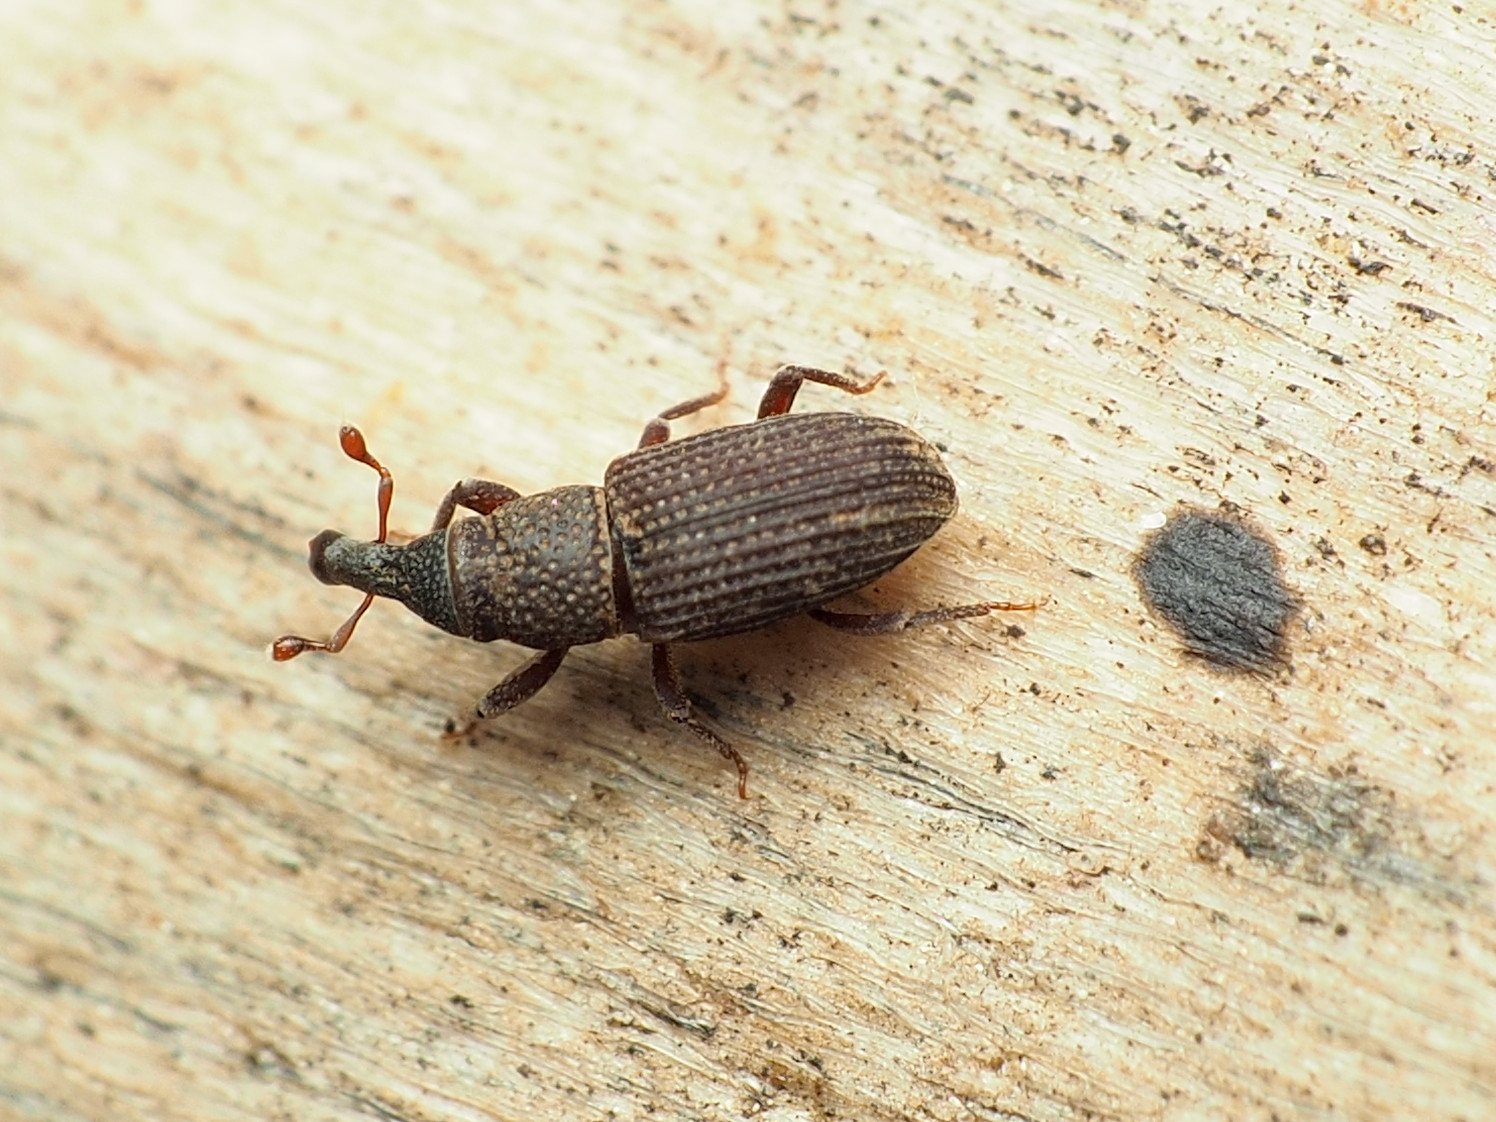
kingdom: Animalia
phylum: Arthropoda
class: Insecta
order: Coleoptera
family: Dryophthoridae
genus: Dryophthorus
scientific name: Dryophthorus americanus
